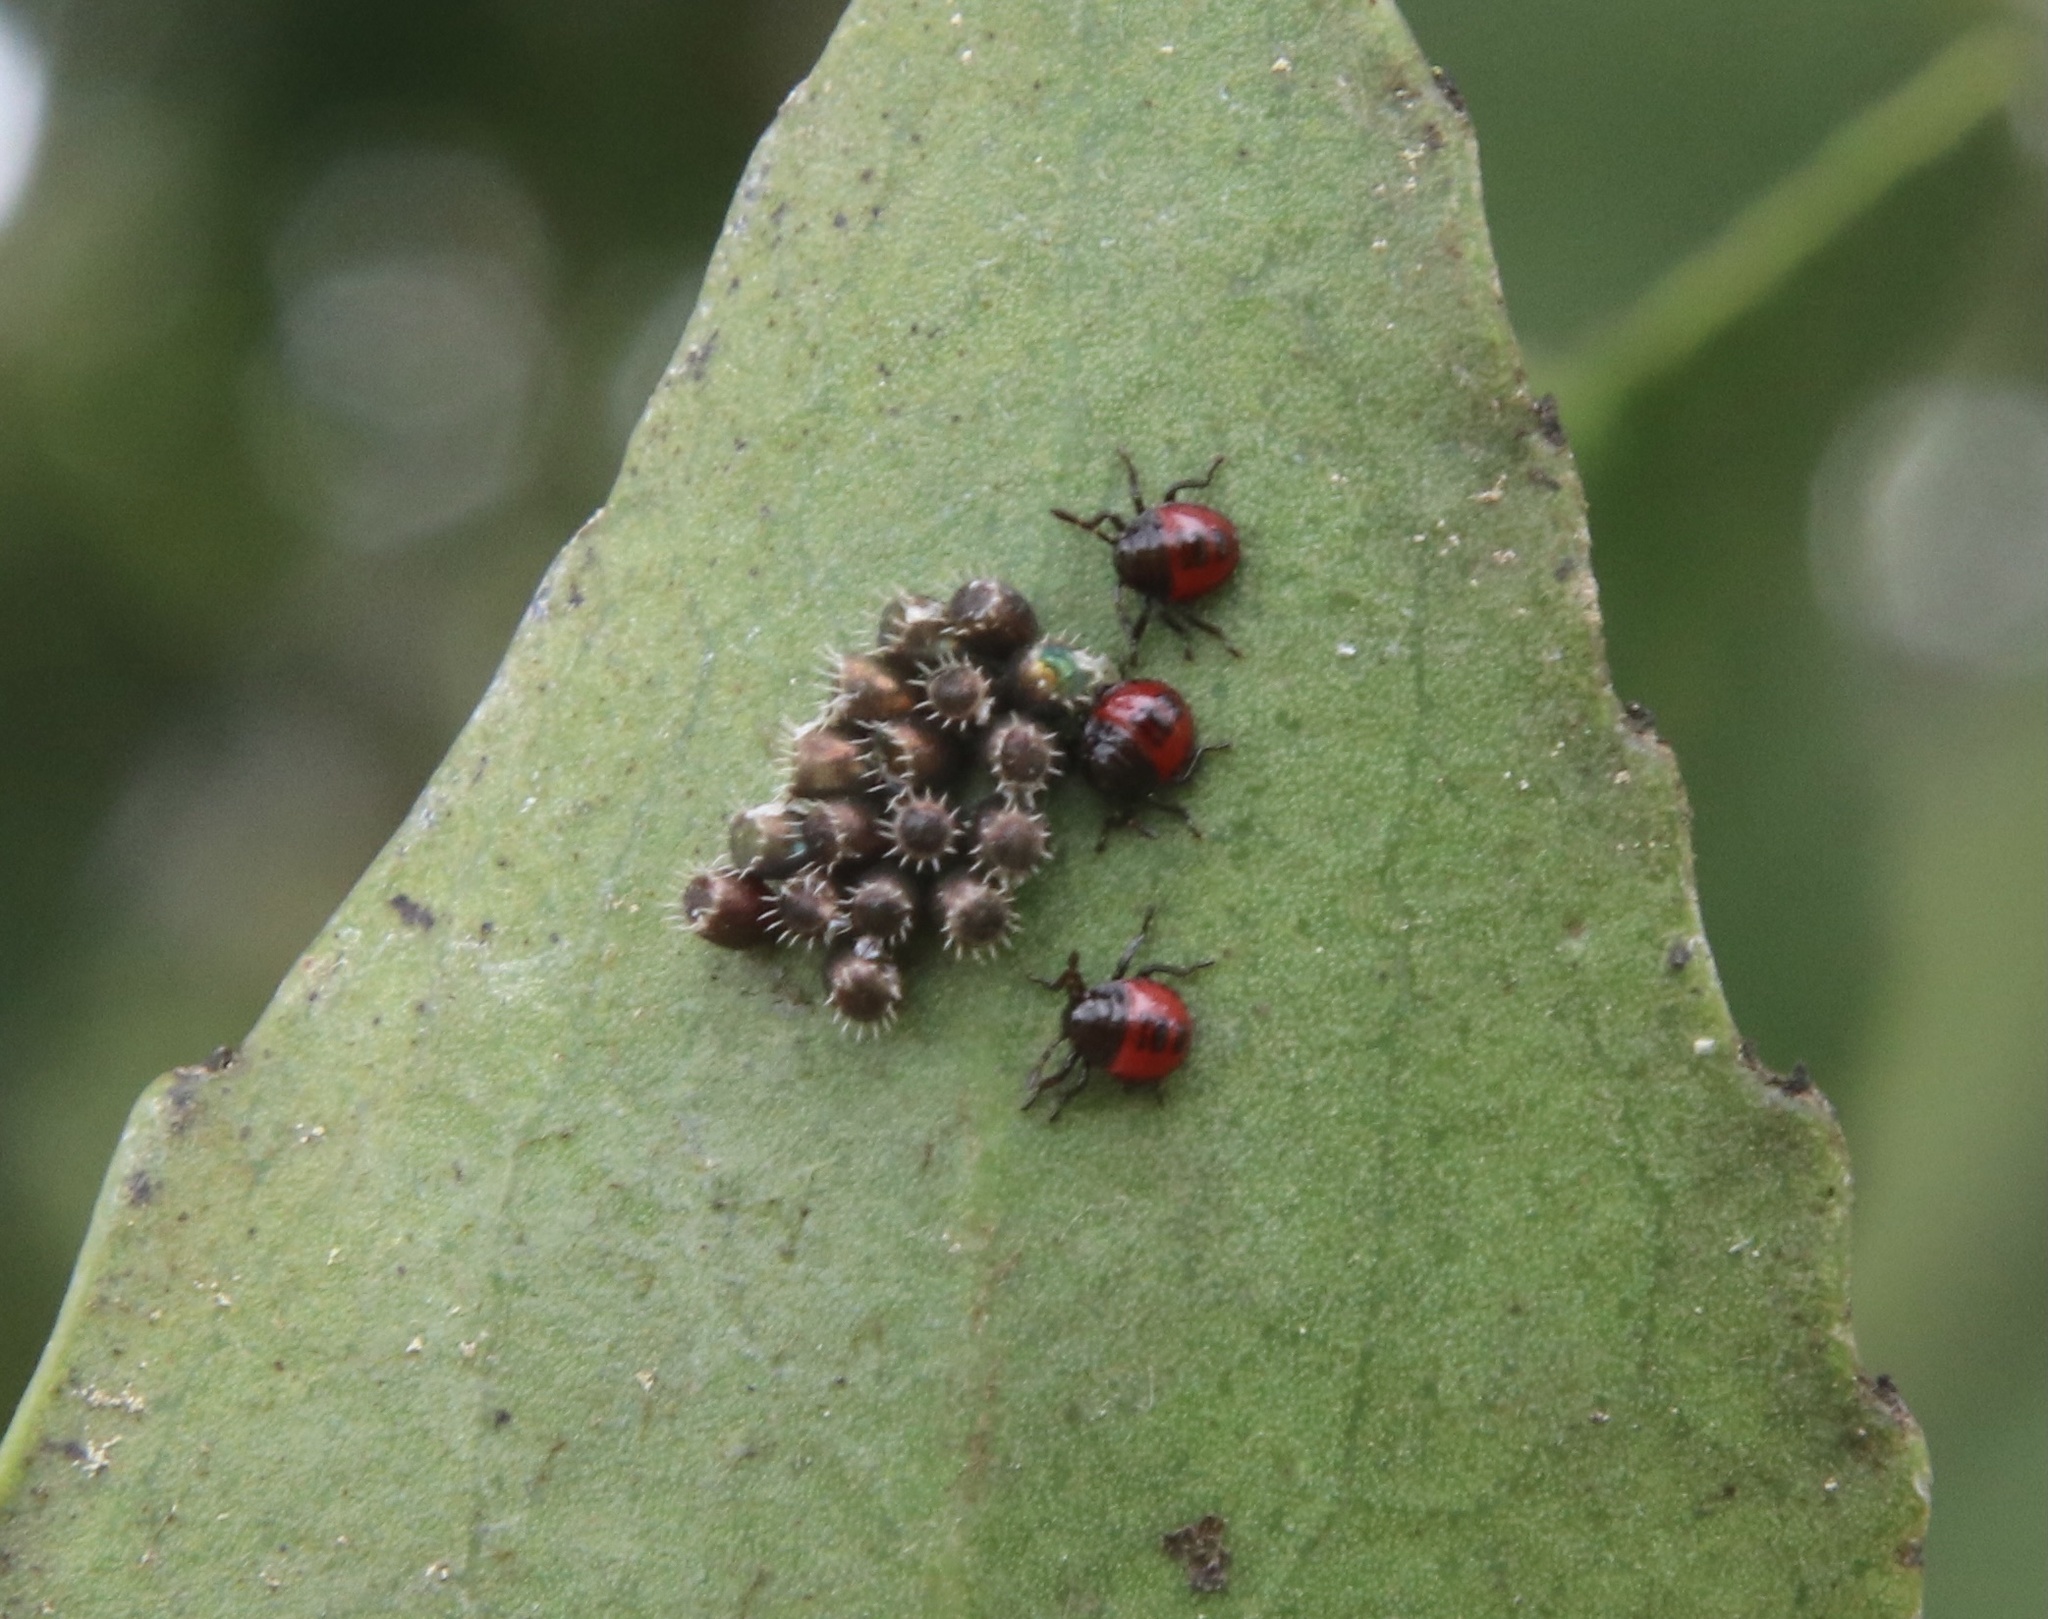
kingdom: Animalia
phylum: Arthropoda
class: Insecta
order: Hemiptera
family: Pentatomidae
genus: Brontocoris
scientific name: Brontocoris
